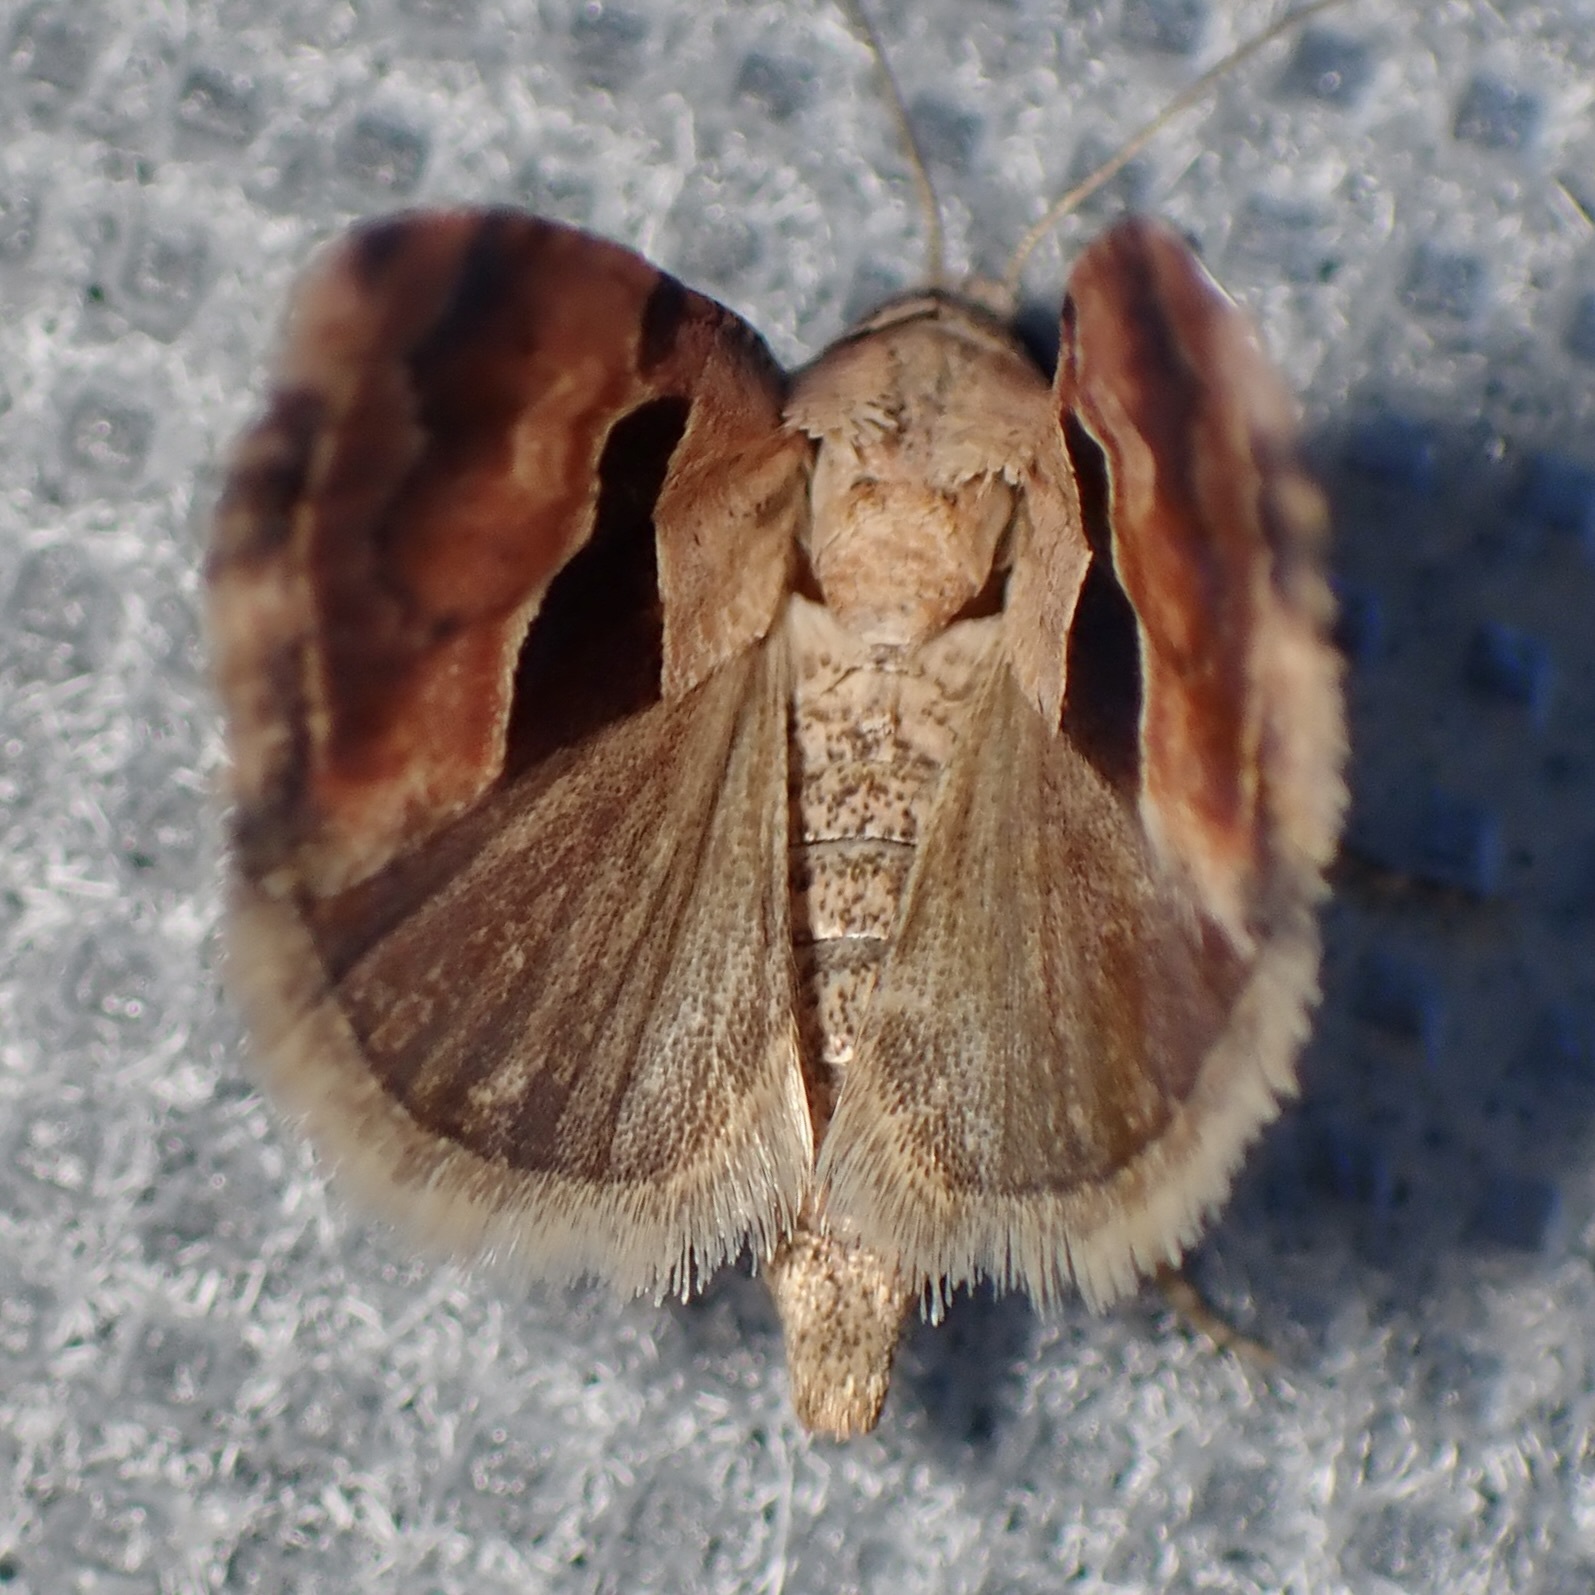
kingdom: Animalia
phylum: Arthropoda
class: Insecta
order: Lepidoptera
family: Noctuidae
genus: Cobubatha
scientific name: Cobubatha lixiva
